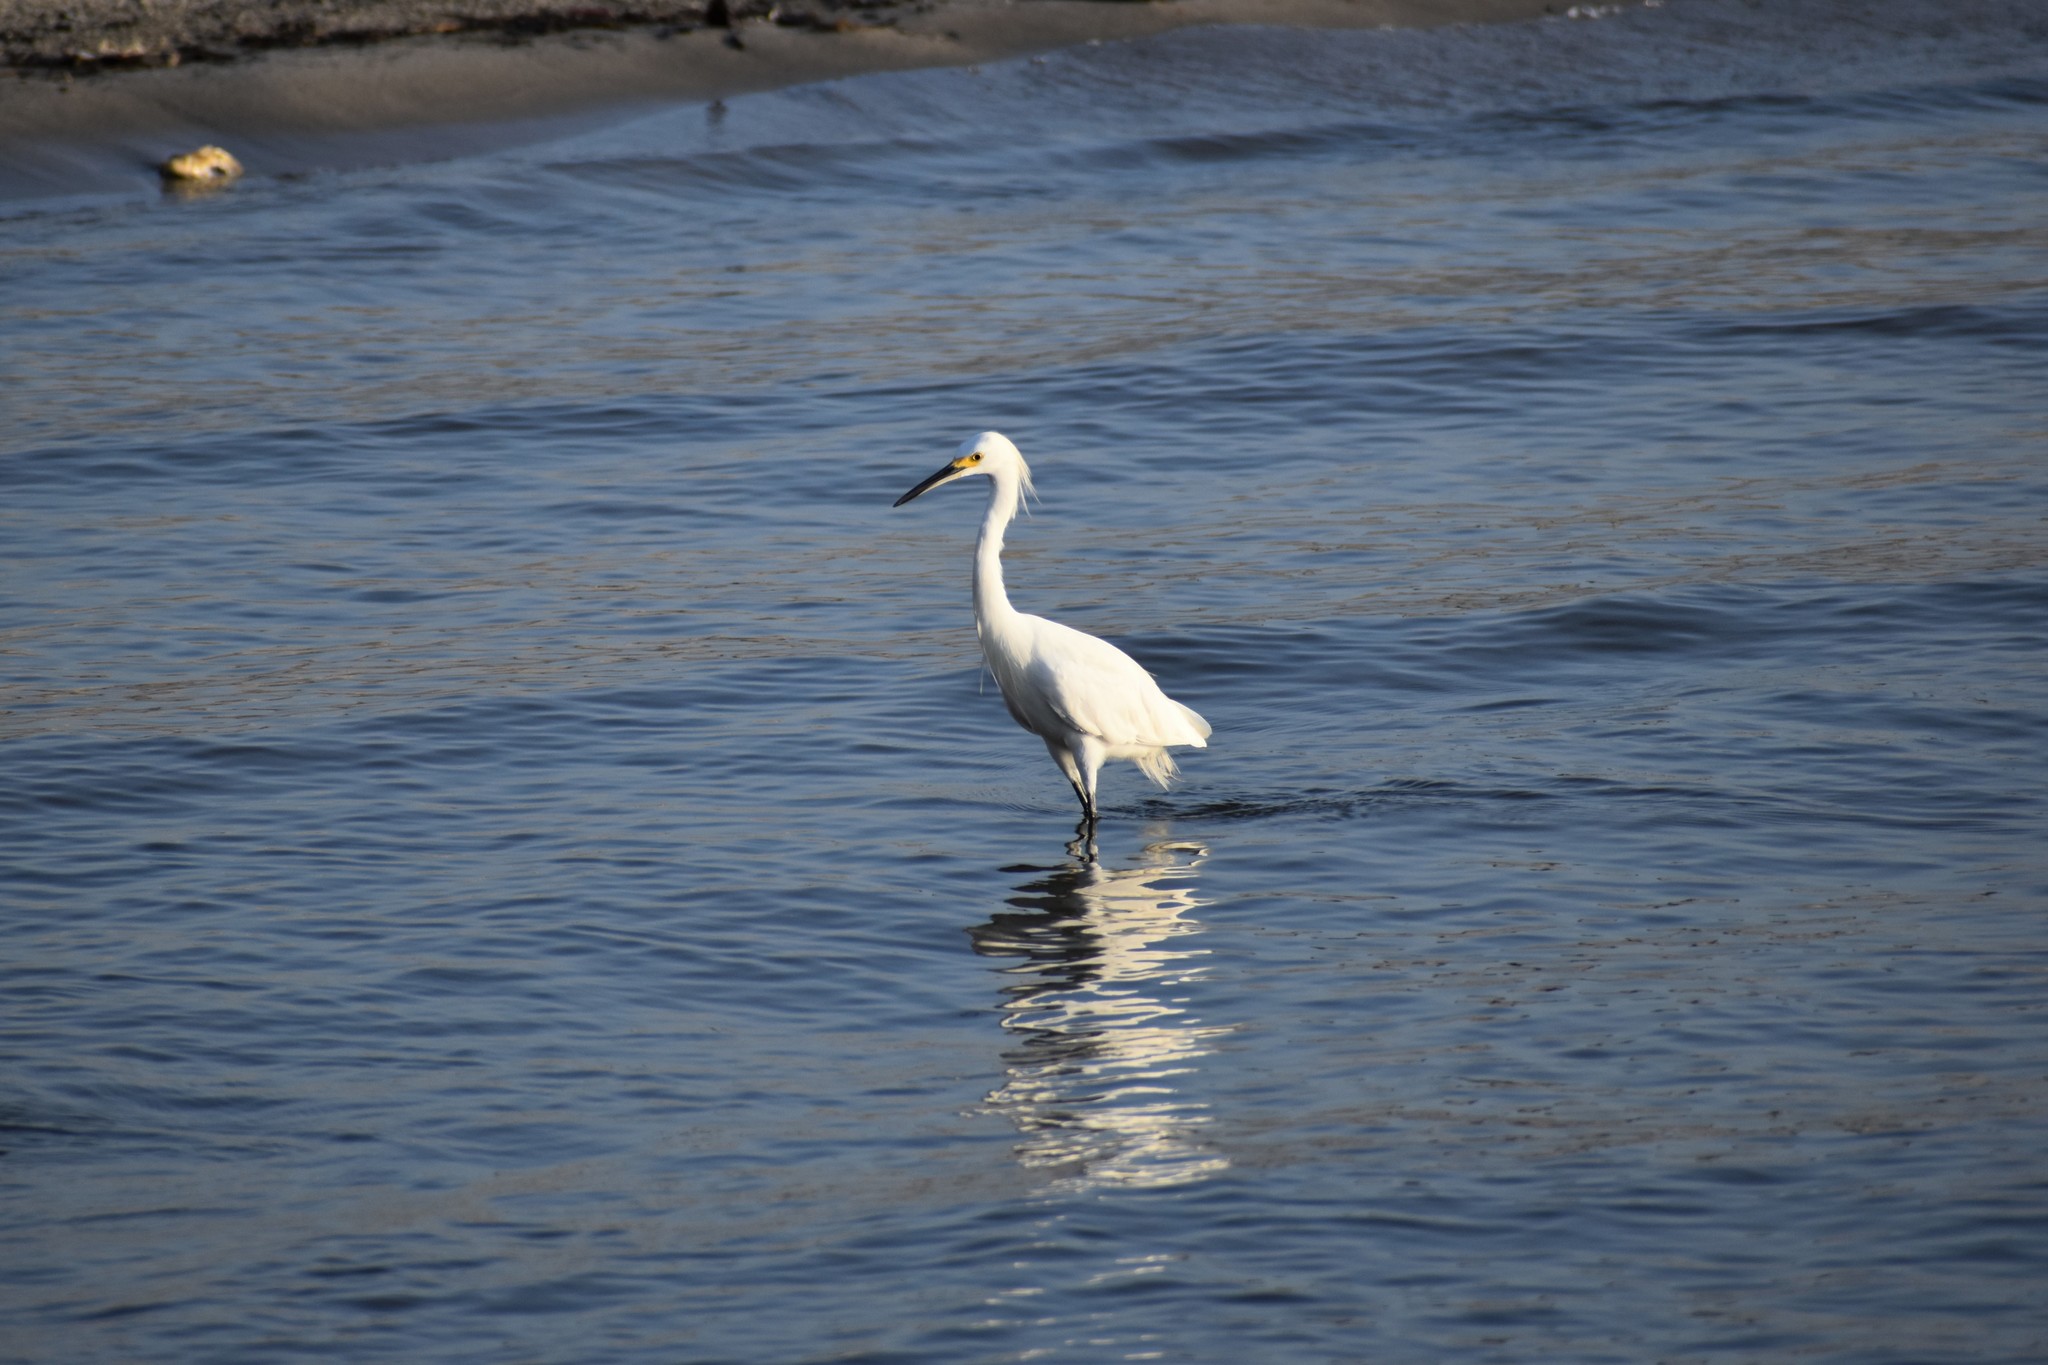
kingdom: Animalia
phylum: Chordata
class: Aves
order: Pelecaniformes
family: Ardeidae
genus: Egretta
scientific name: Egretta thula
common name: Snowy egret
